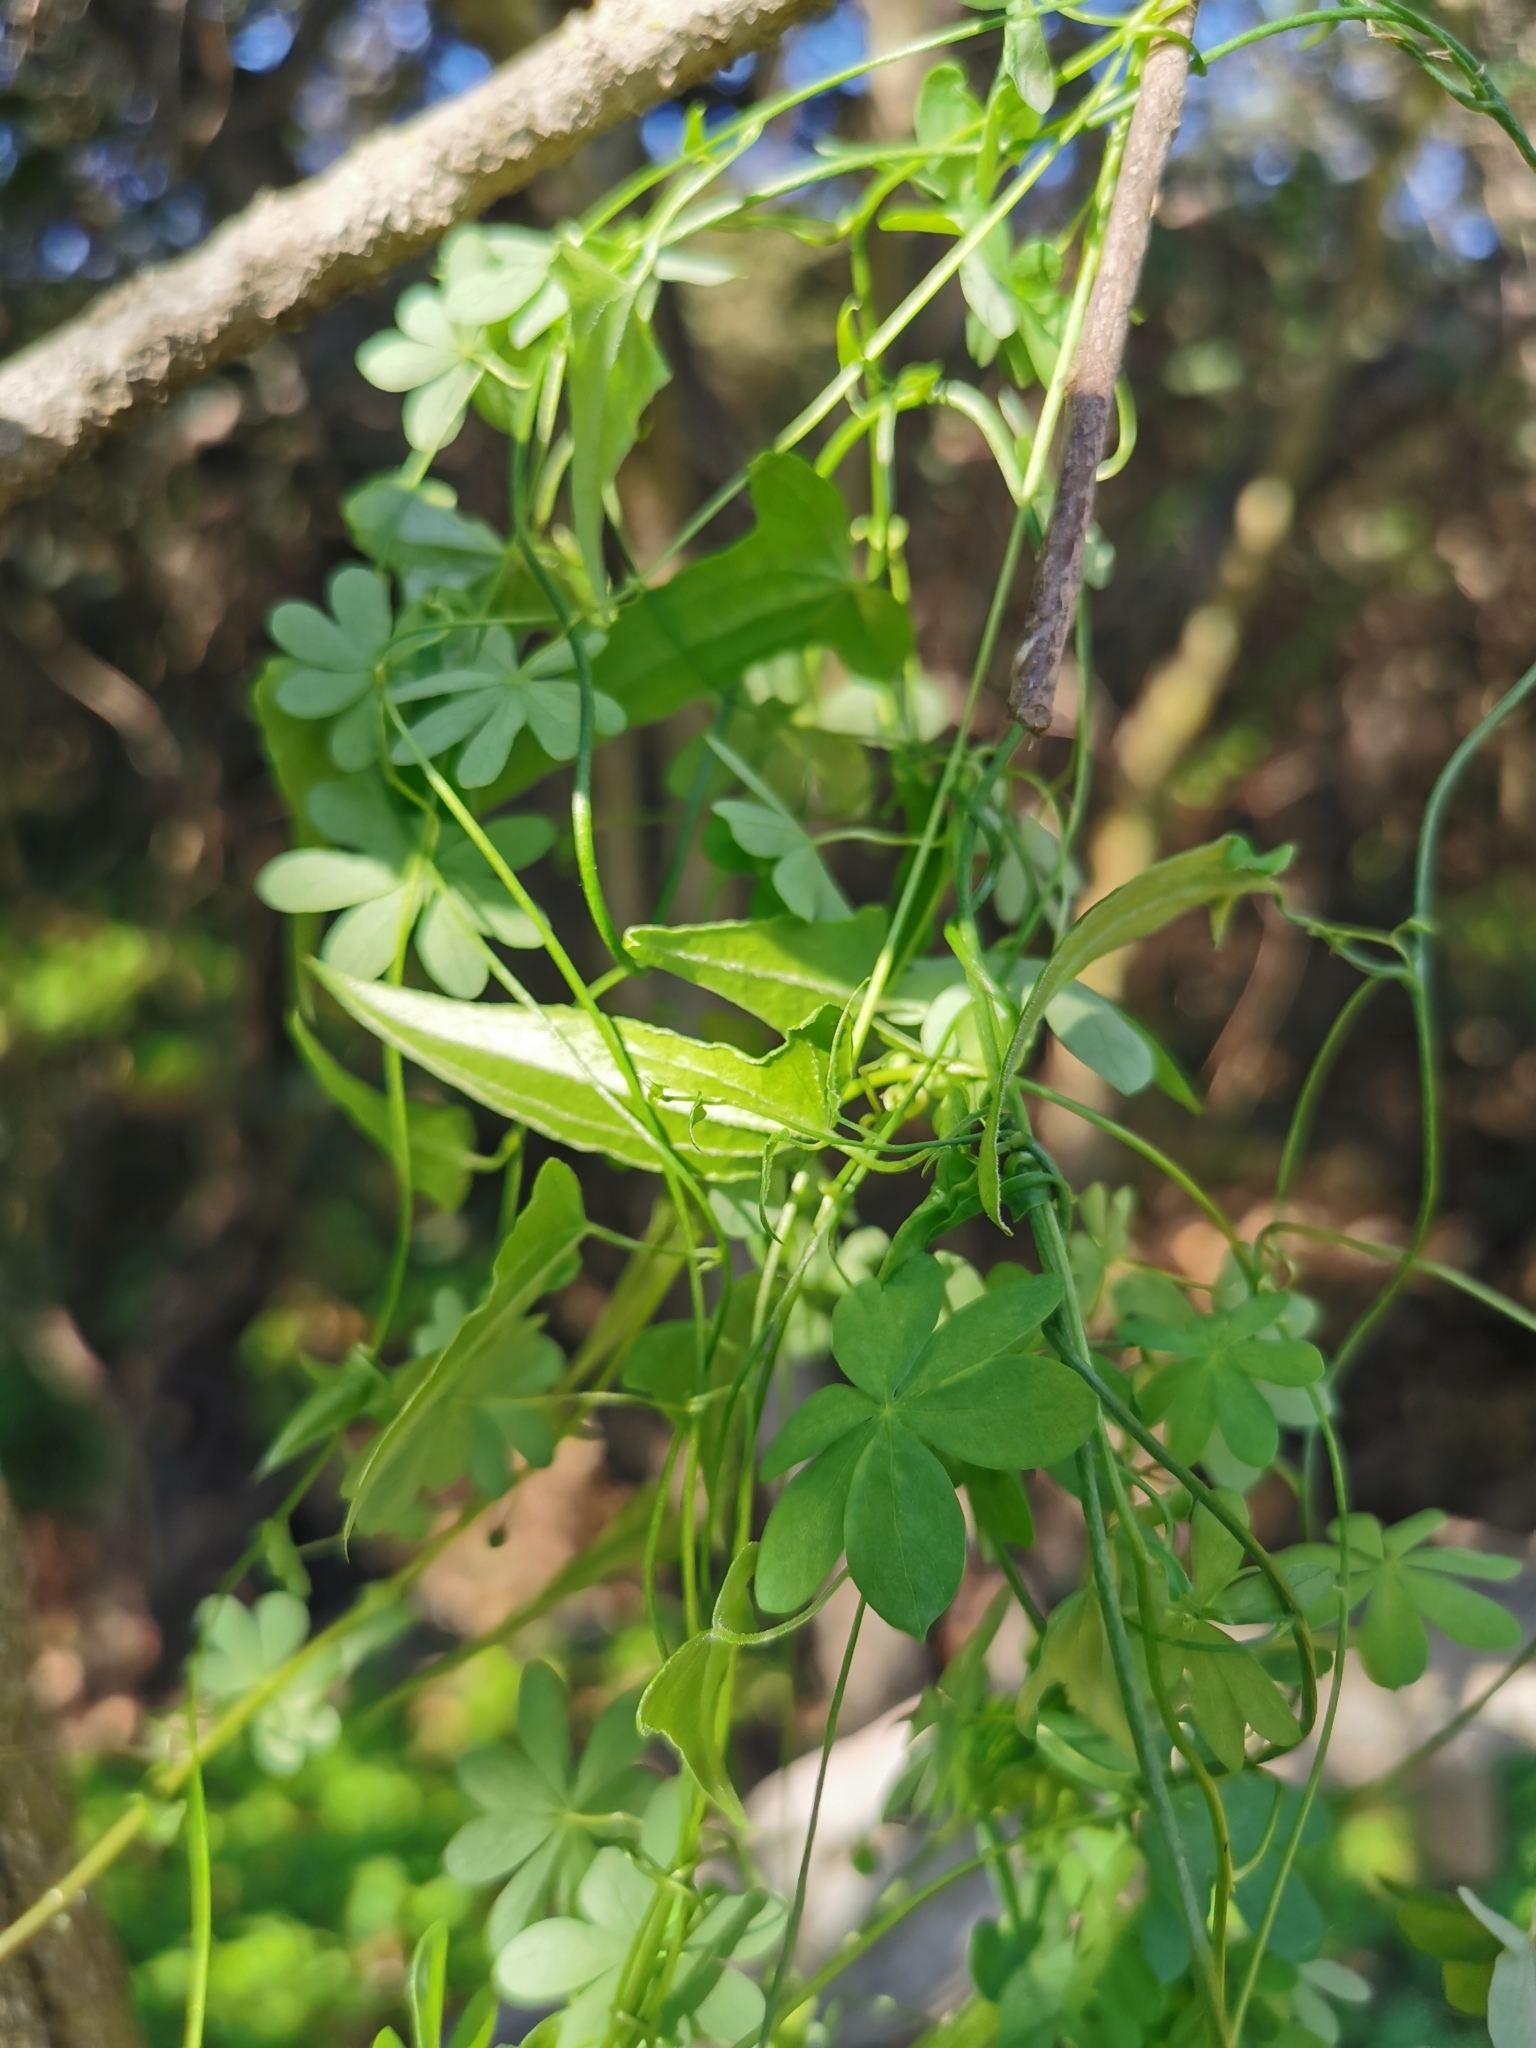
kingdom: Plantae
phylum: Tracheophyta
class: Liliopsida
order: Dioscoreales
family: Dioscoreaceae
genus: Dioscorea
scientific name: Dioscorea aristolochiifolia
